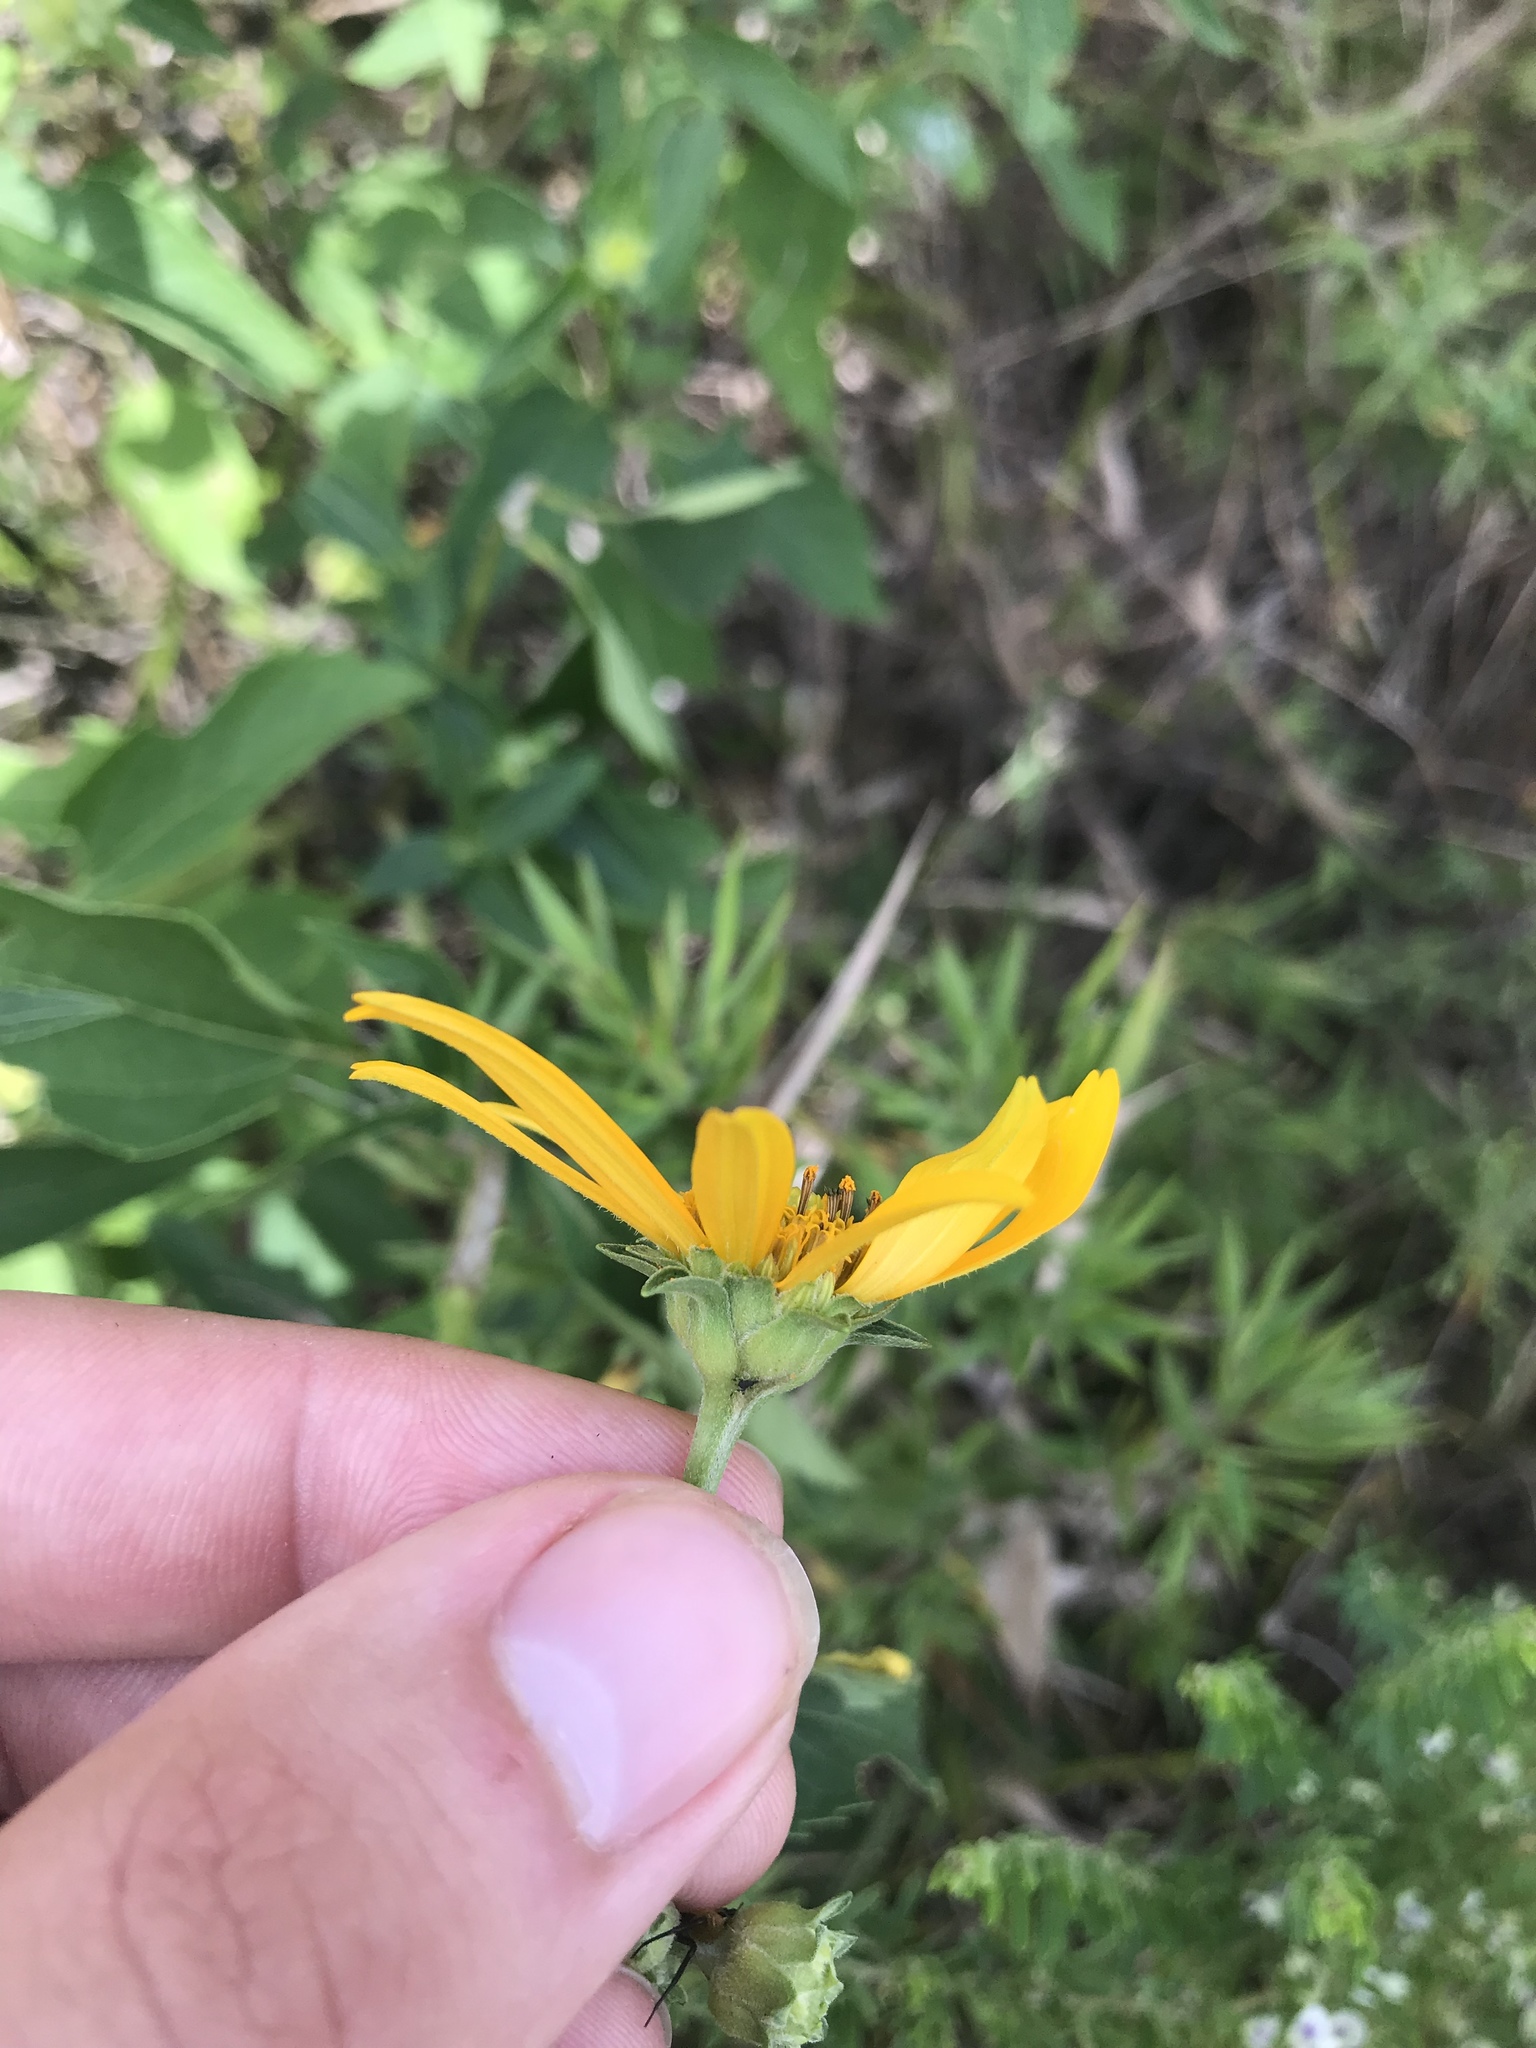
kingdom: Plantae
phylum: Tracheophyta
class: Magnoliopsida
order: Asterales
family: Asteraceae
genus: Heliopsis
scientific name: Heliopsis helianthoides
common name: False sunflower
